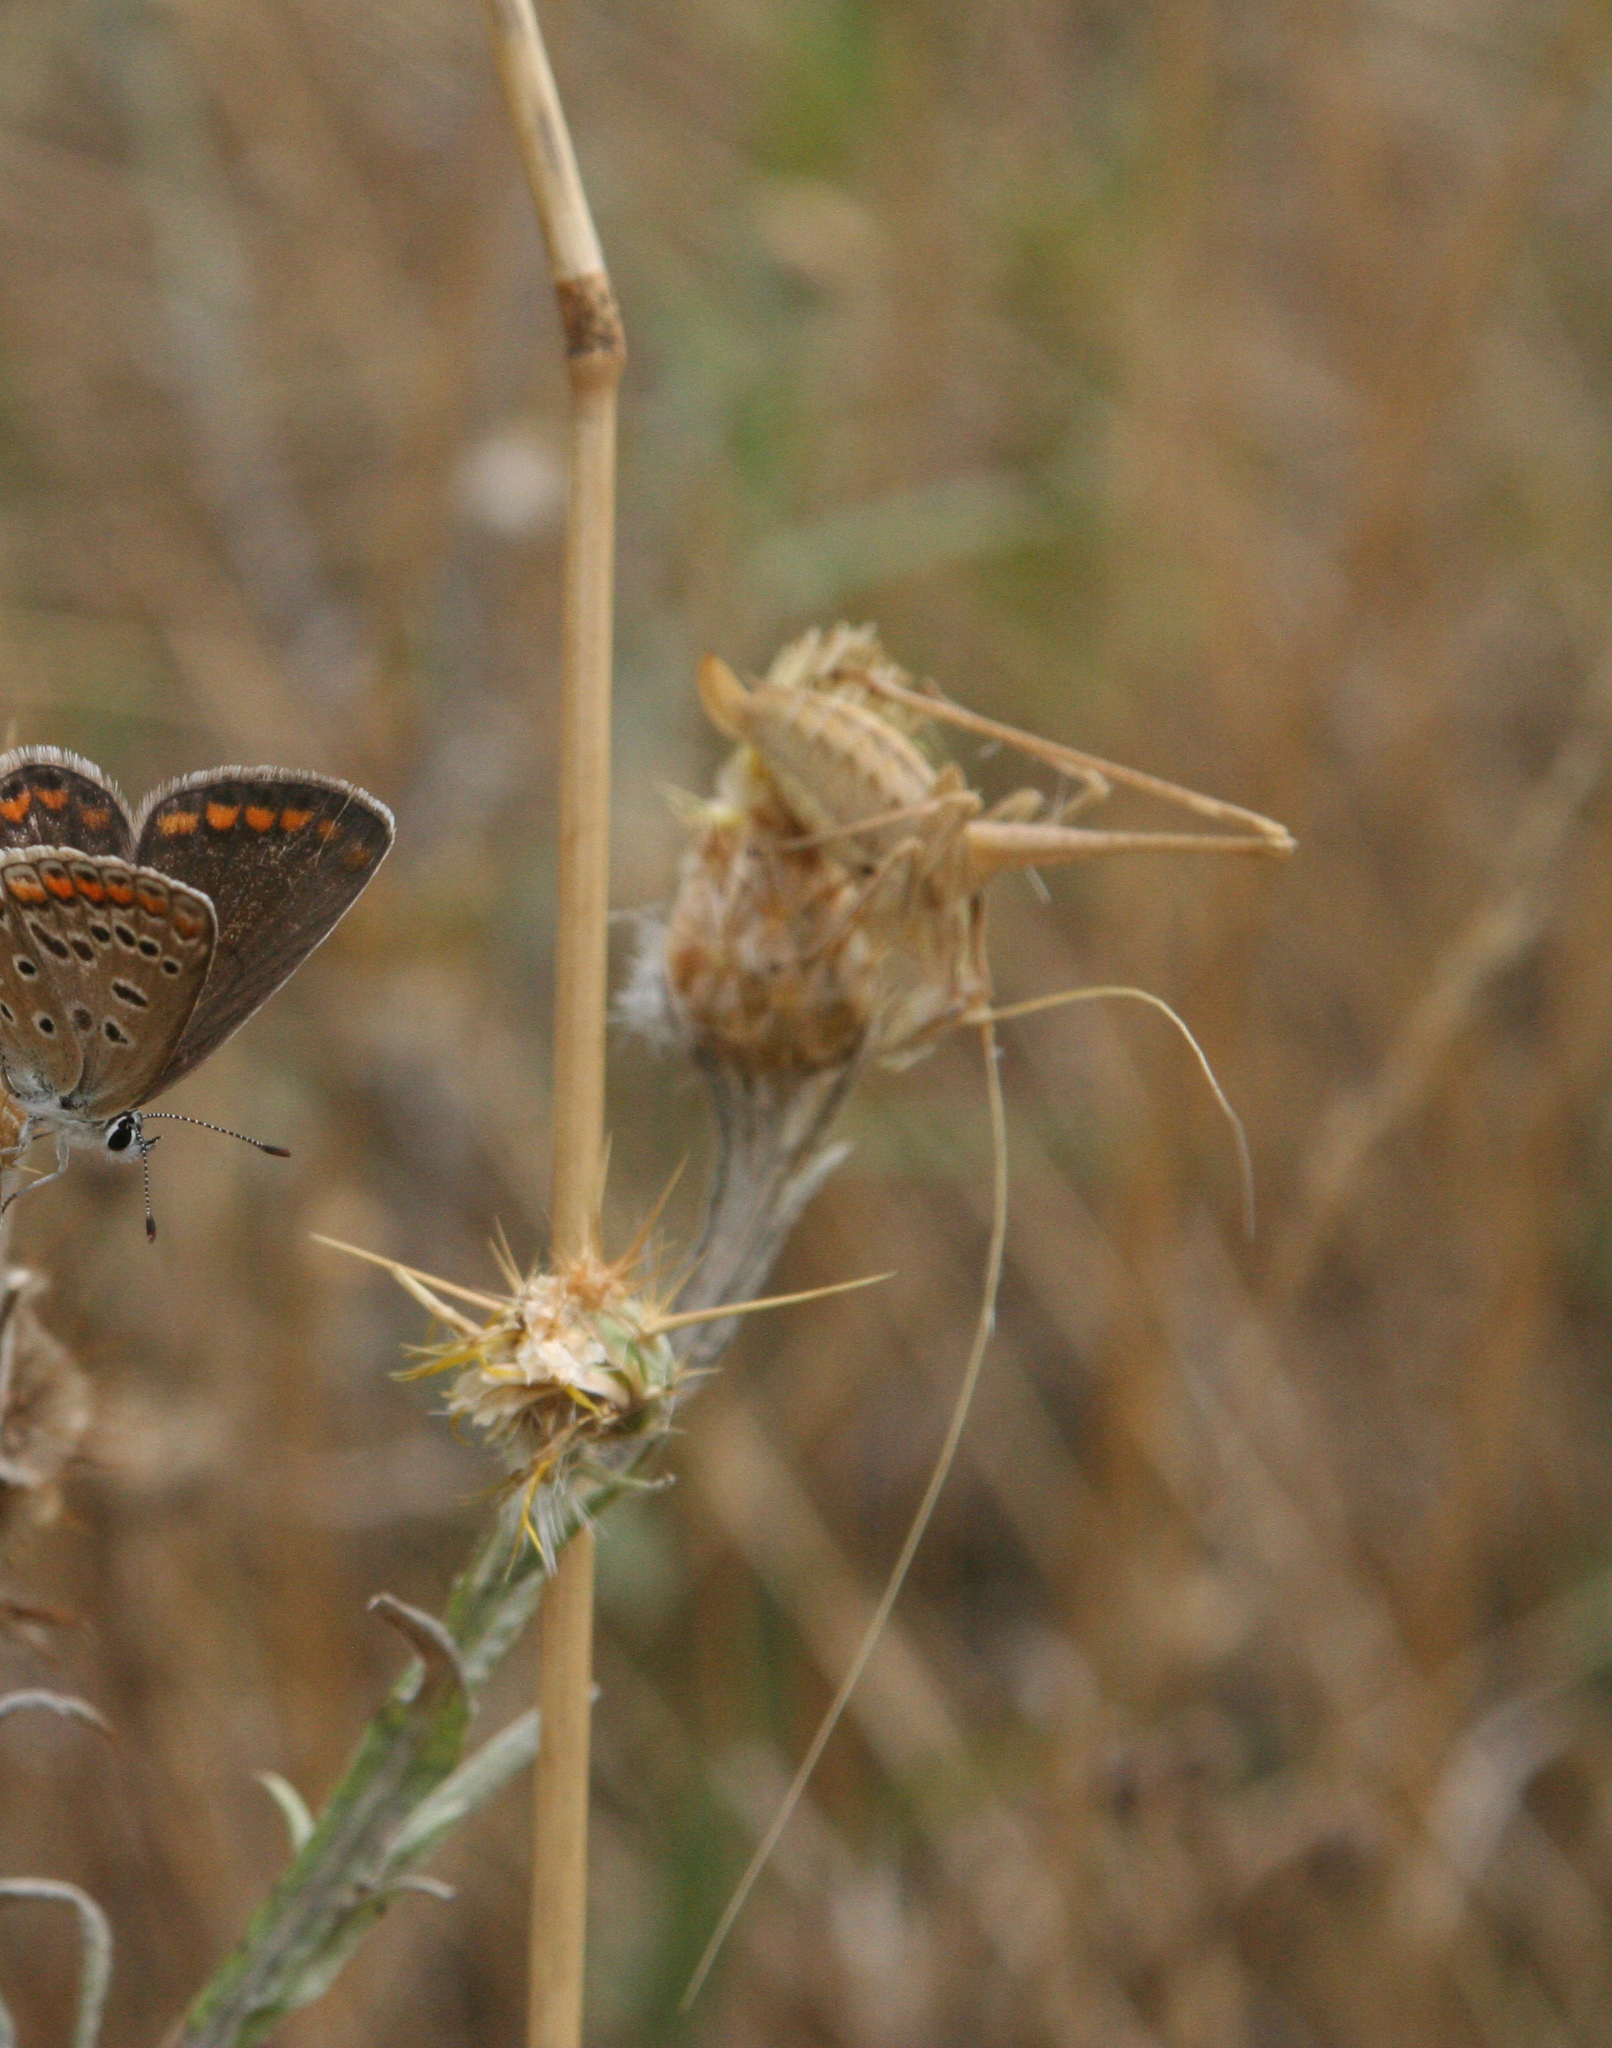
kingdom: Animalia
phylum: Arthropoda
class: Insecta
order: Orthoptera
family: Tettigoniidae
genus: Tylopsis
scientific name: Tylopsis lilifolia
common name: Lily bush-cricket
